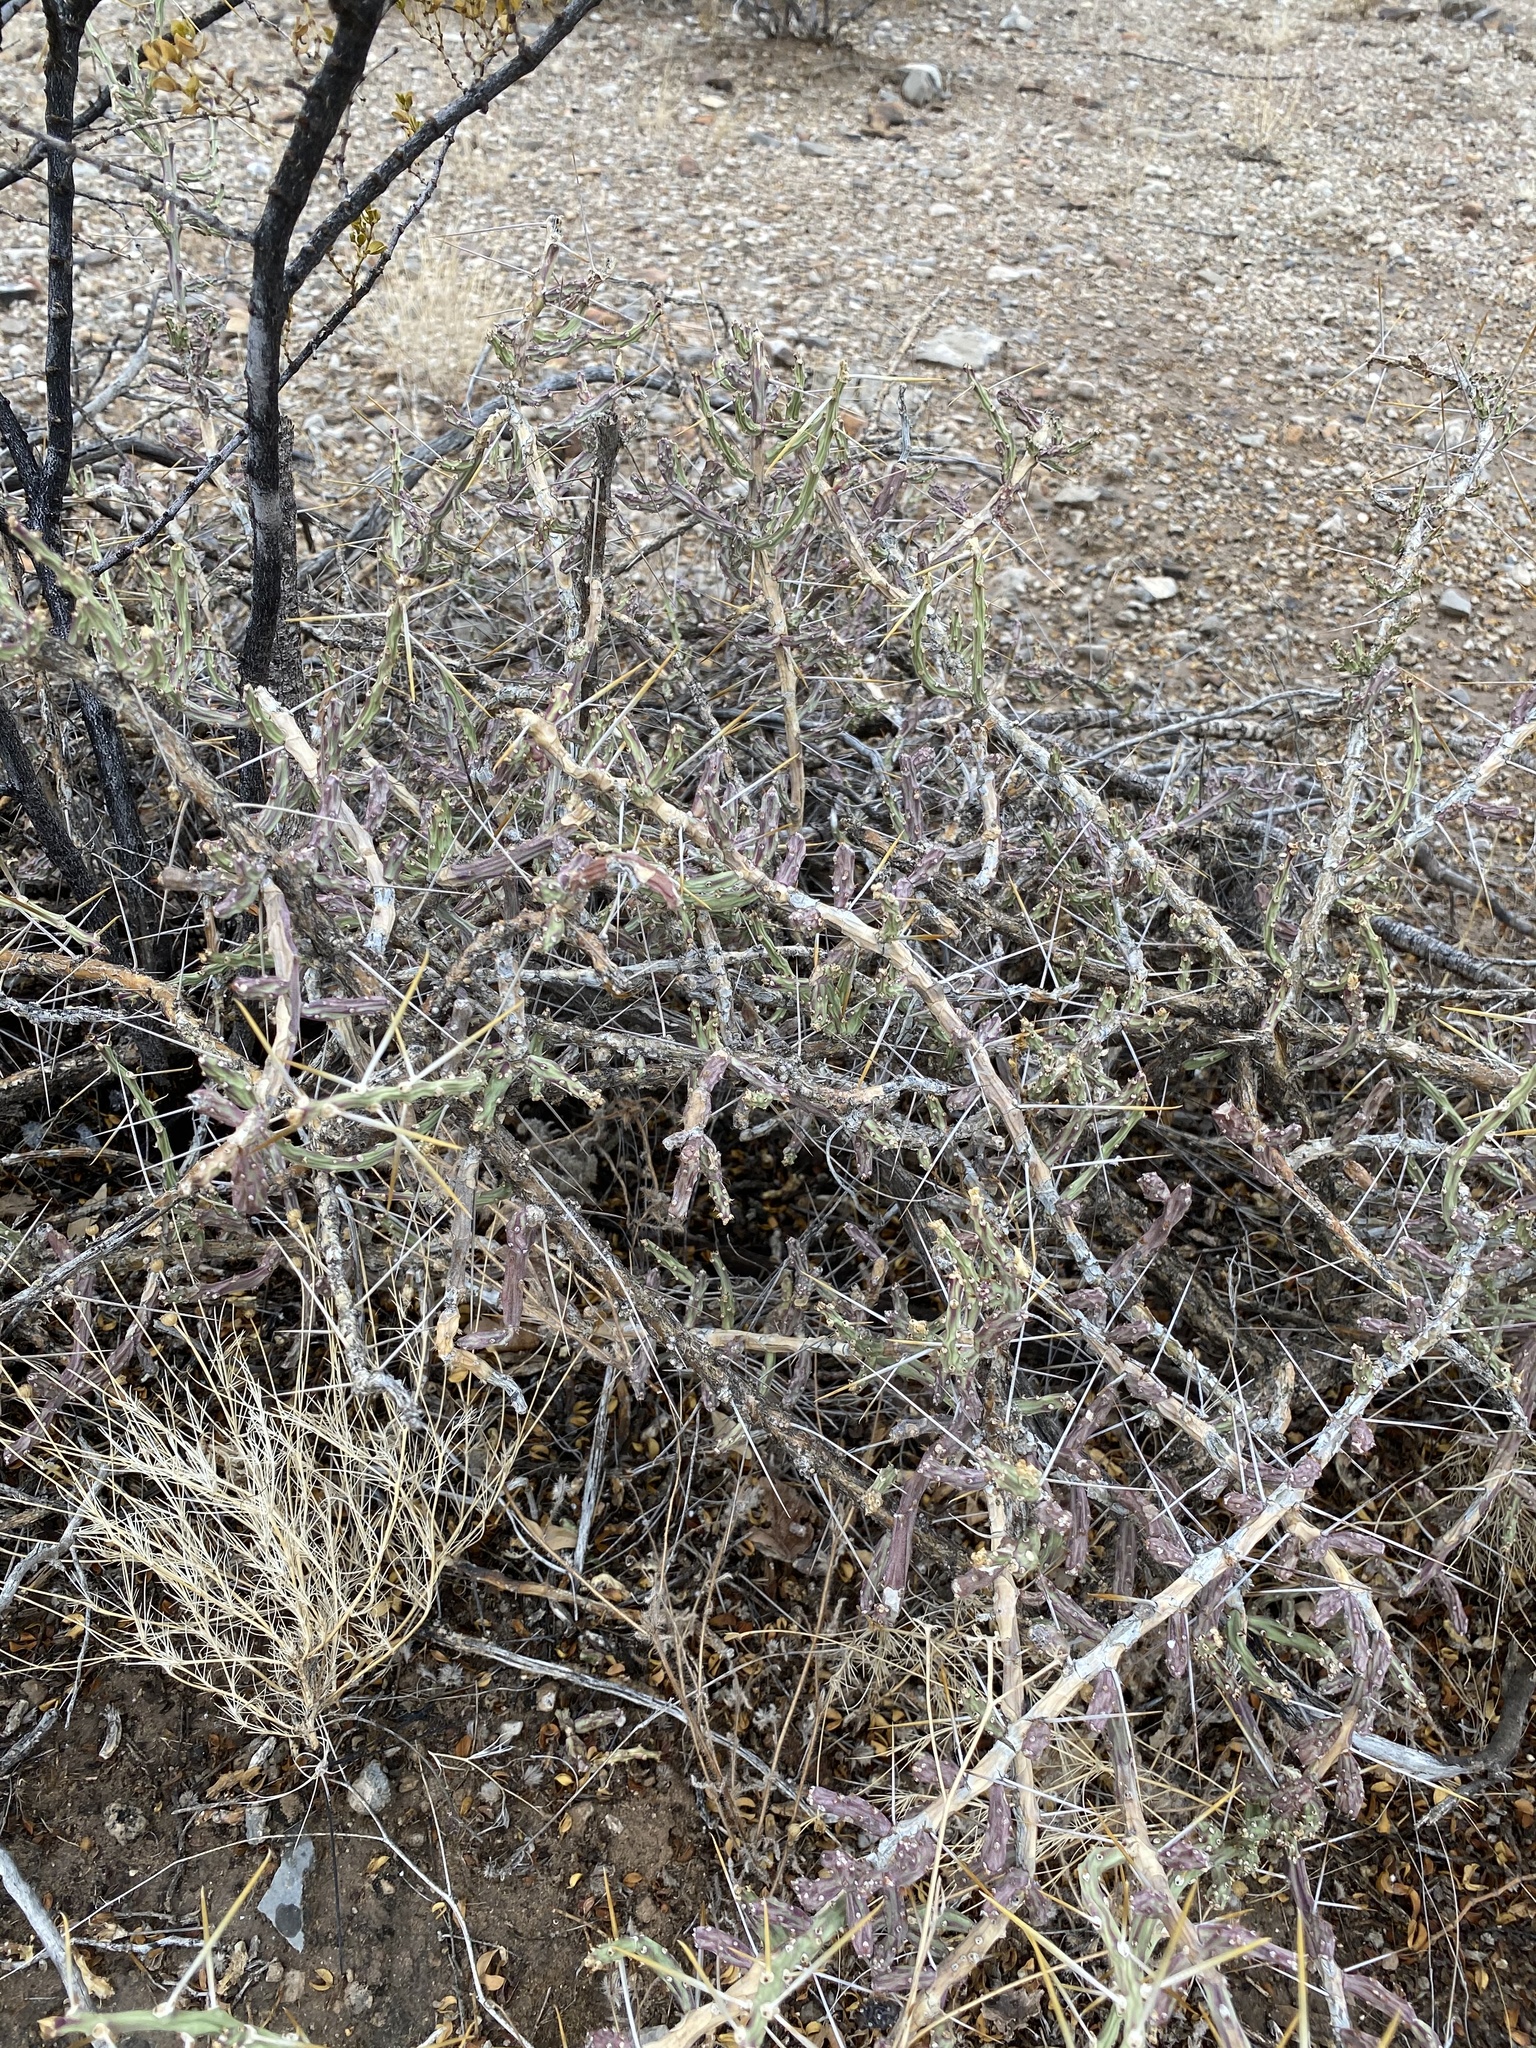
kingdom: Plantae
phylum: Tracheophyta
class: Magnoliopsida
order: Caryophyllales
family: Cactaceae
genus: Cylindropuntia
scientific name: Cylindropuntia leptocaulis
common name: Christmas cactus
